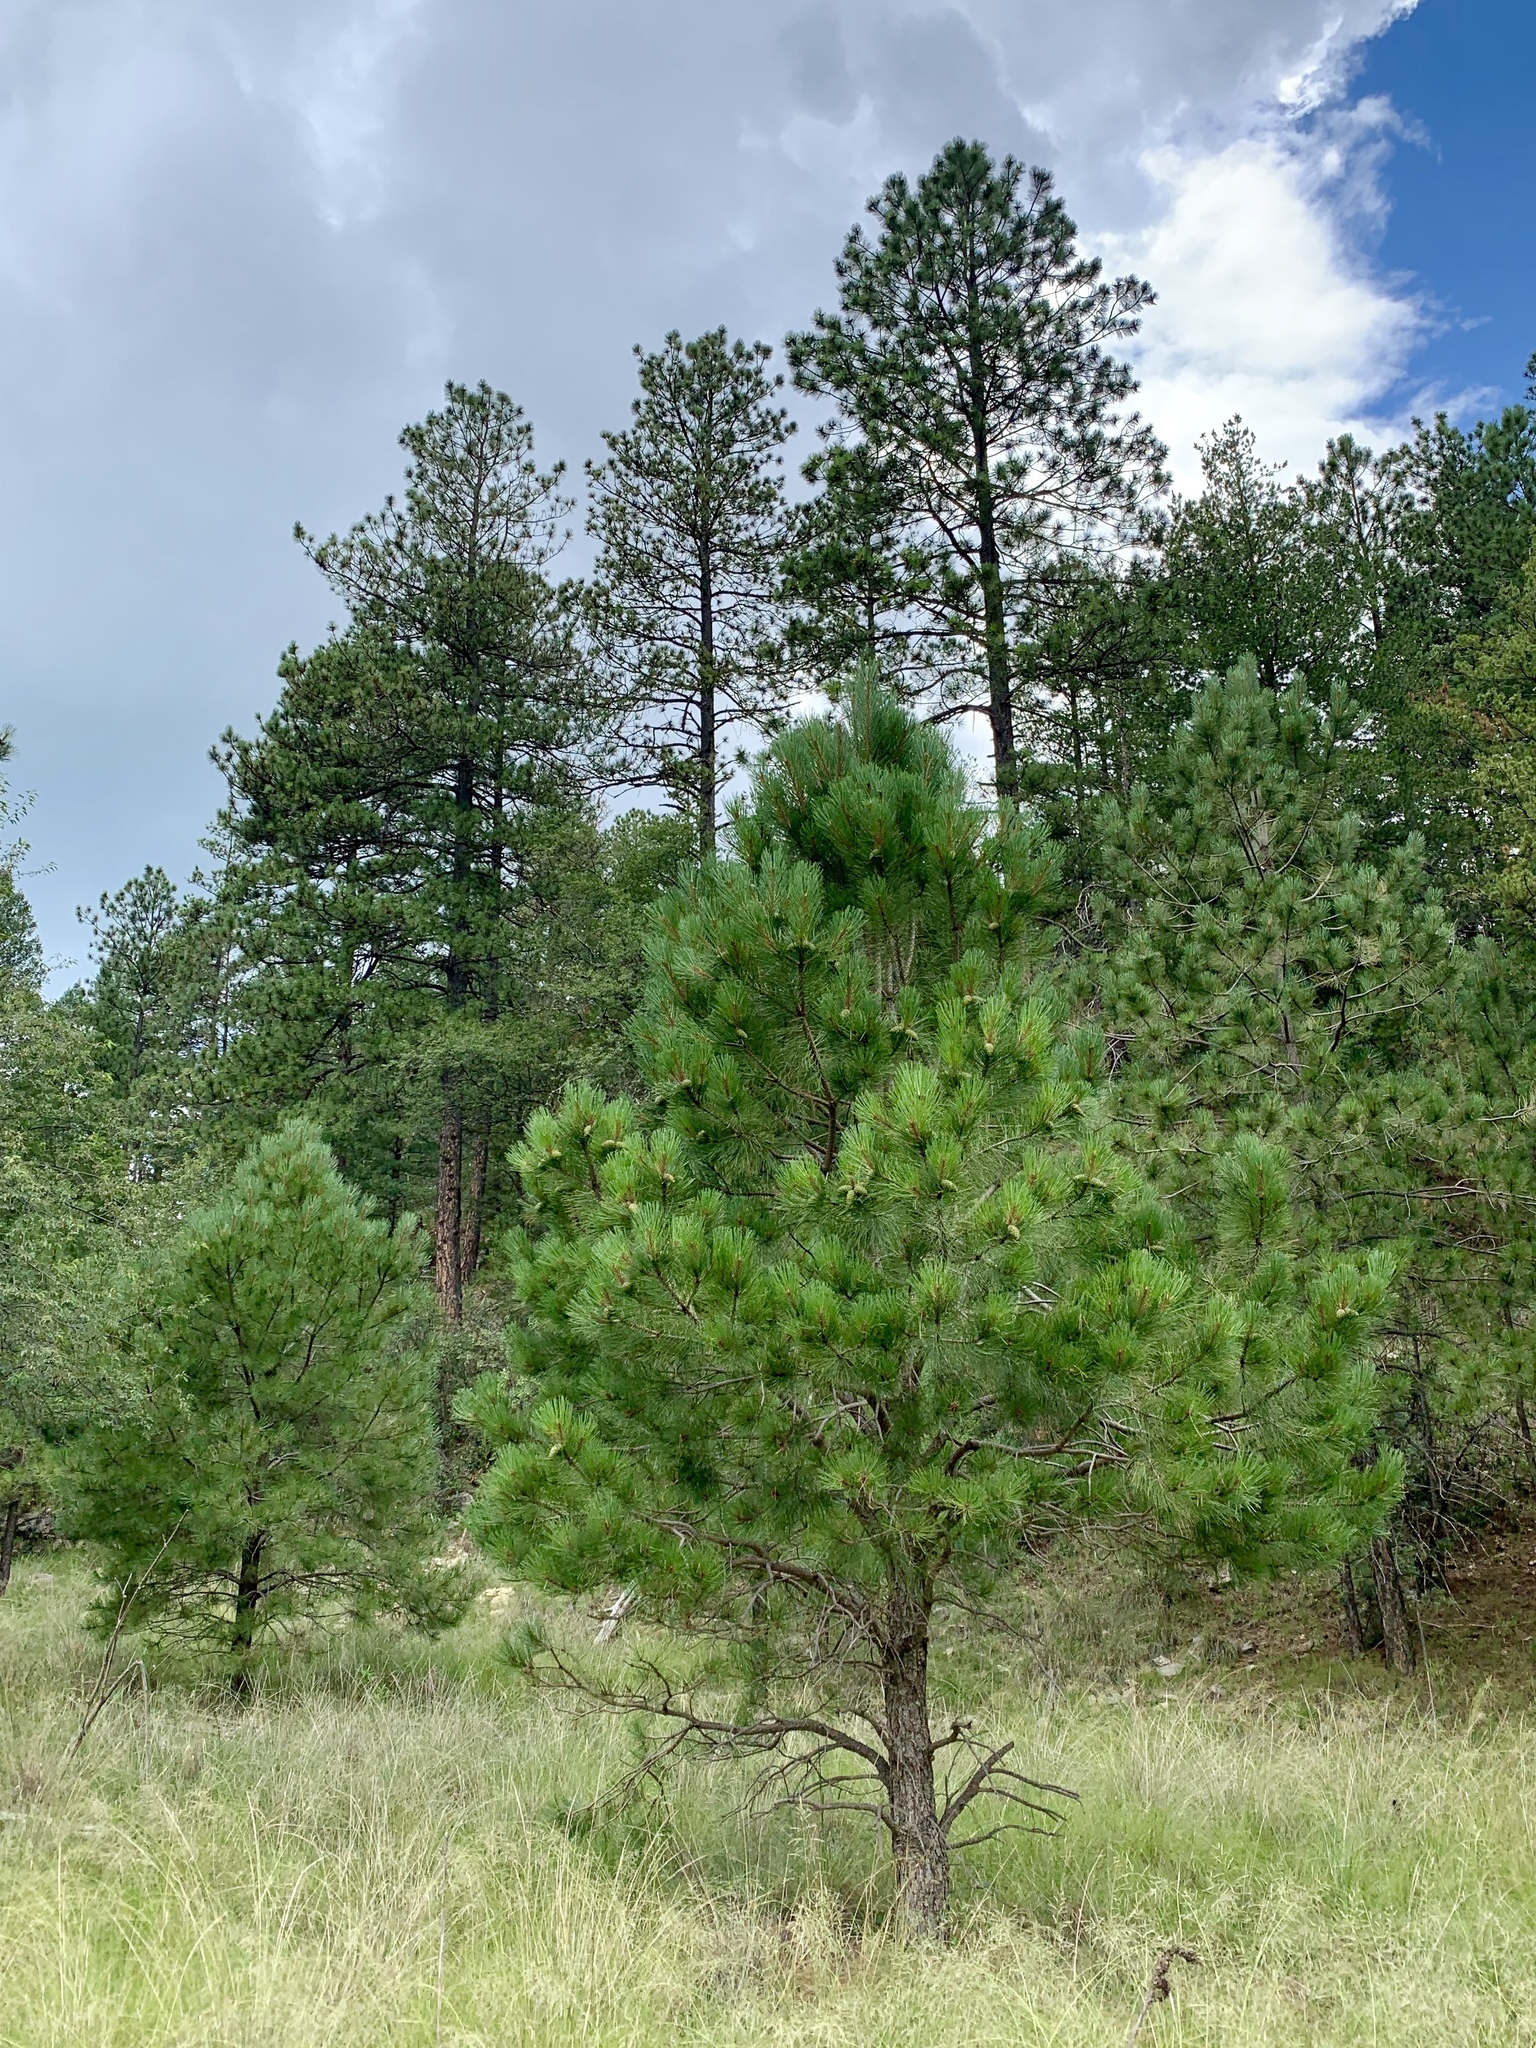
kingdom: Plantae
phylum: Tracheophyta
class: Pinopsida
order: Pinales
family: Pinaceae
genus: Pinus
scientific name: Pinus ponderosa
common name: Western yellow-pine
